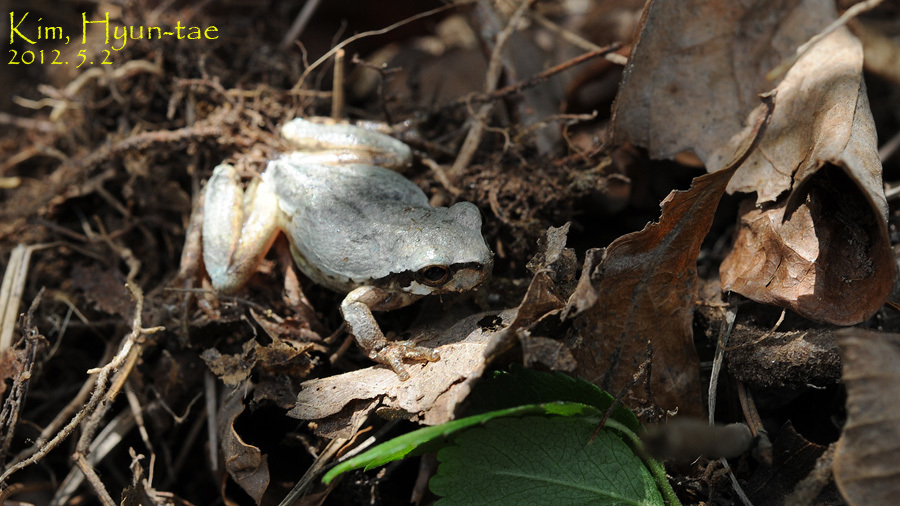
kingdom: Animalia
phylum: Chordata
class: Amphibia
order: Anura
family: Hylidae
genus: Dryophytes
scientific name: Dryophytes japonicus
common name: Japanese treefrog
